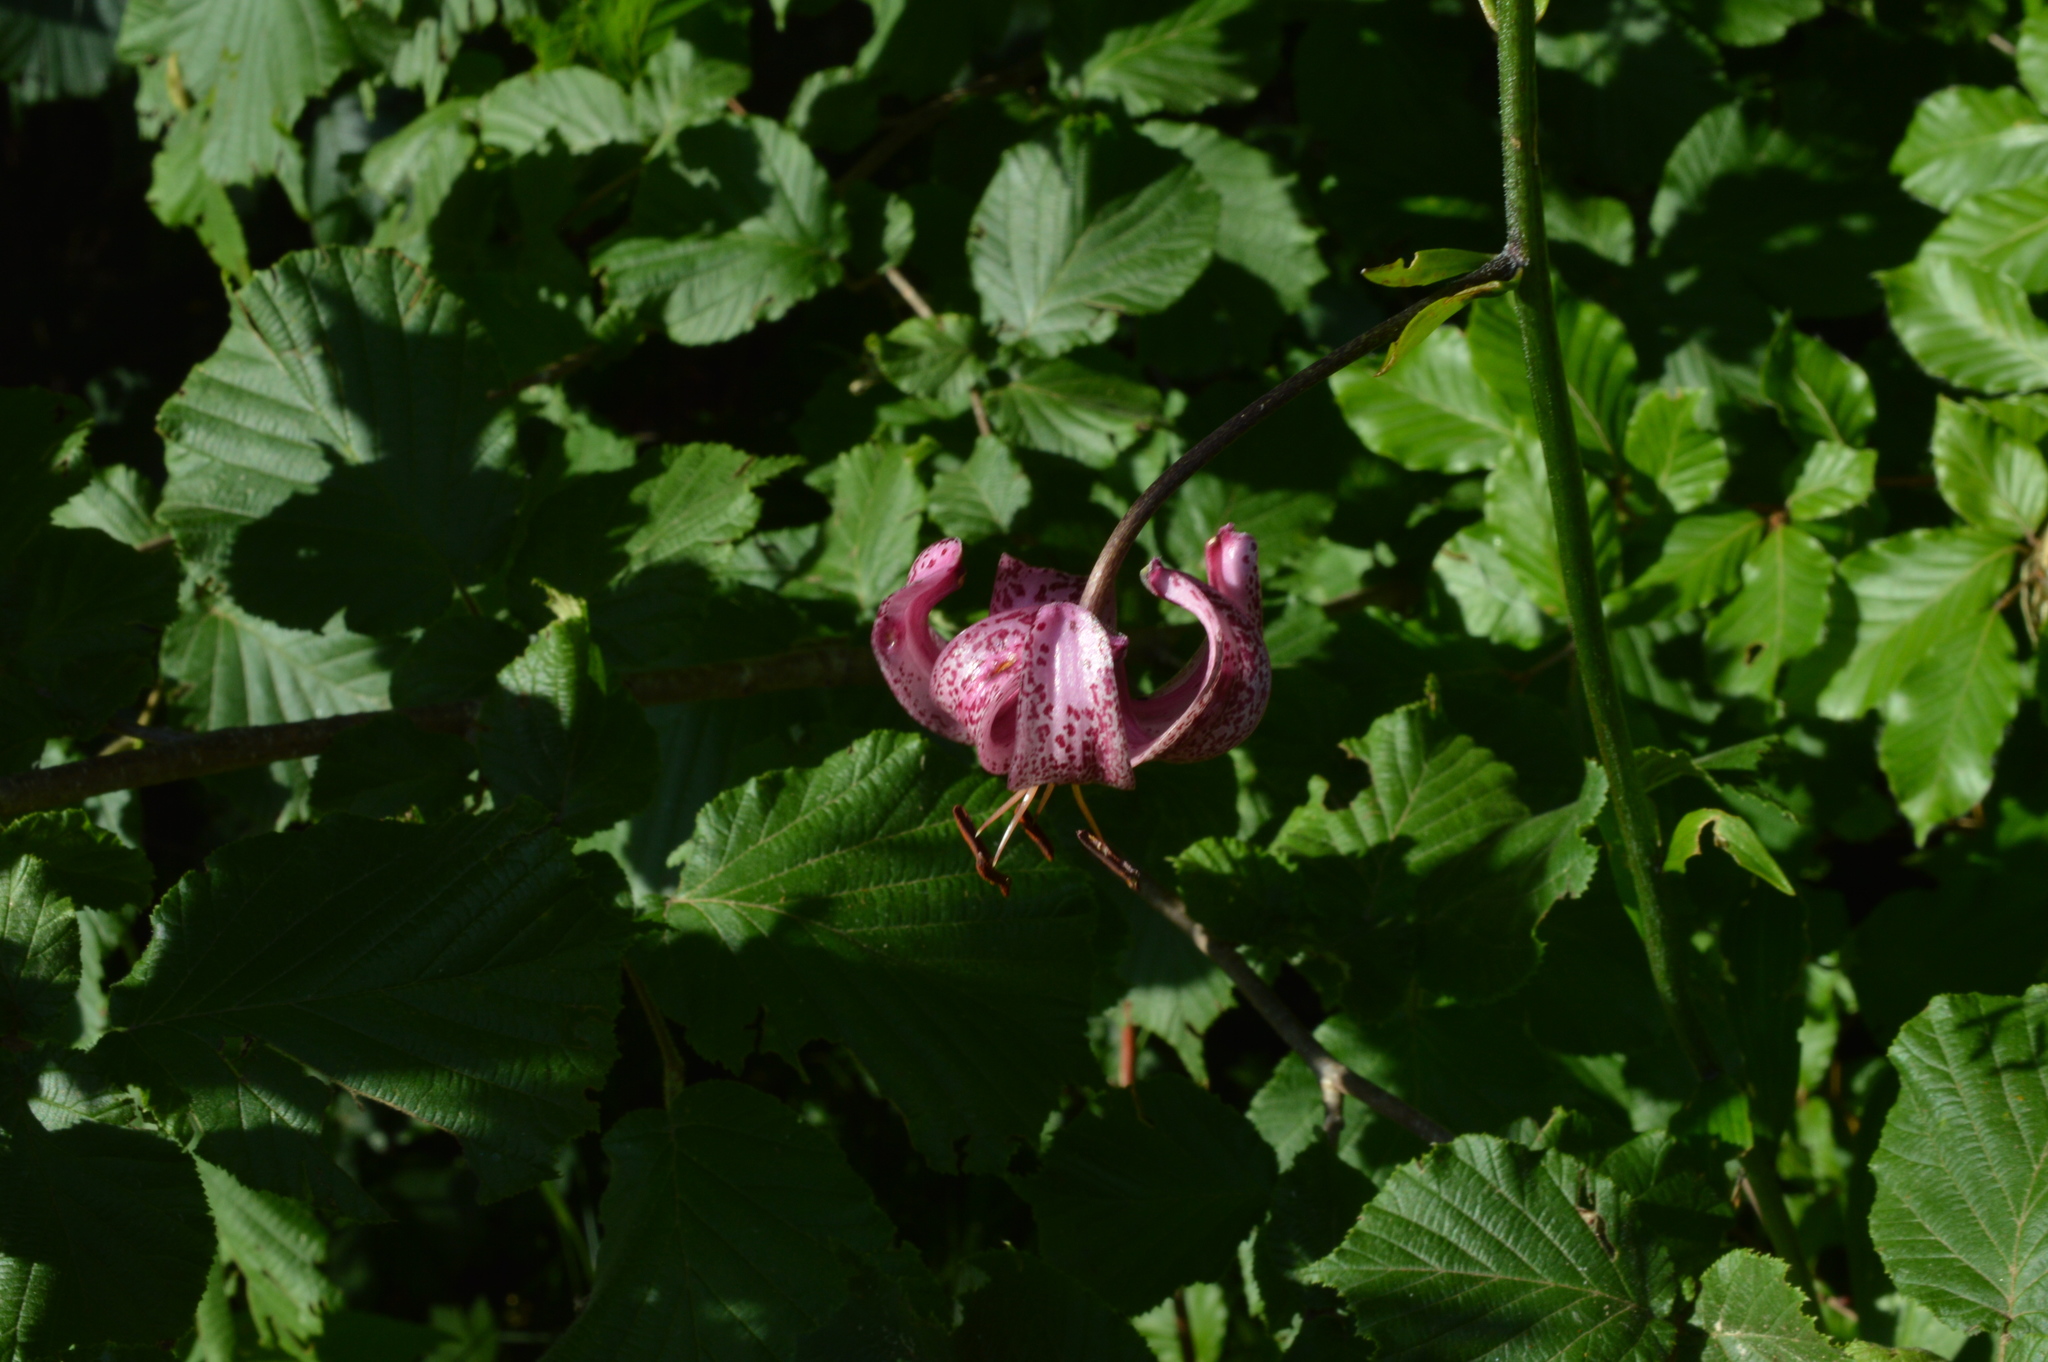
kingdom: Plantae
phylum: Tracheophyta
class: Liliopsida
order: Liliales
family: Liliaceae
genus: Lilium
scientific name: Lilium martagon
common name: Martagon lily
